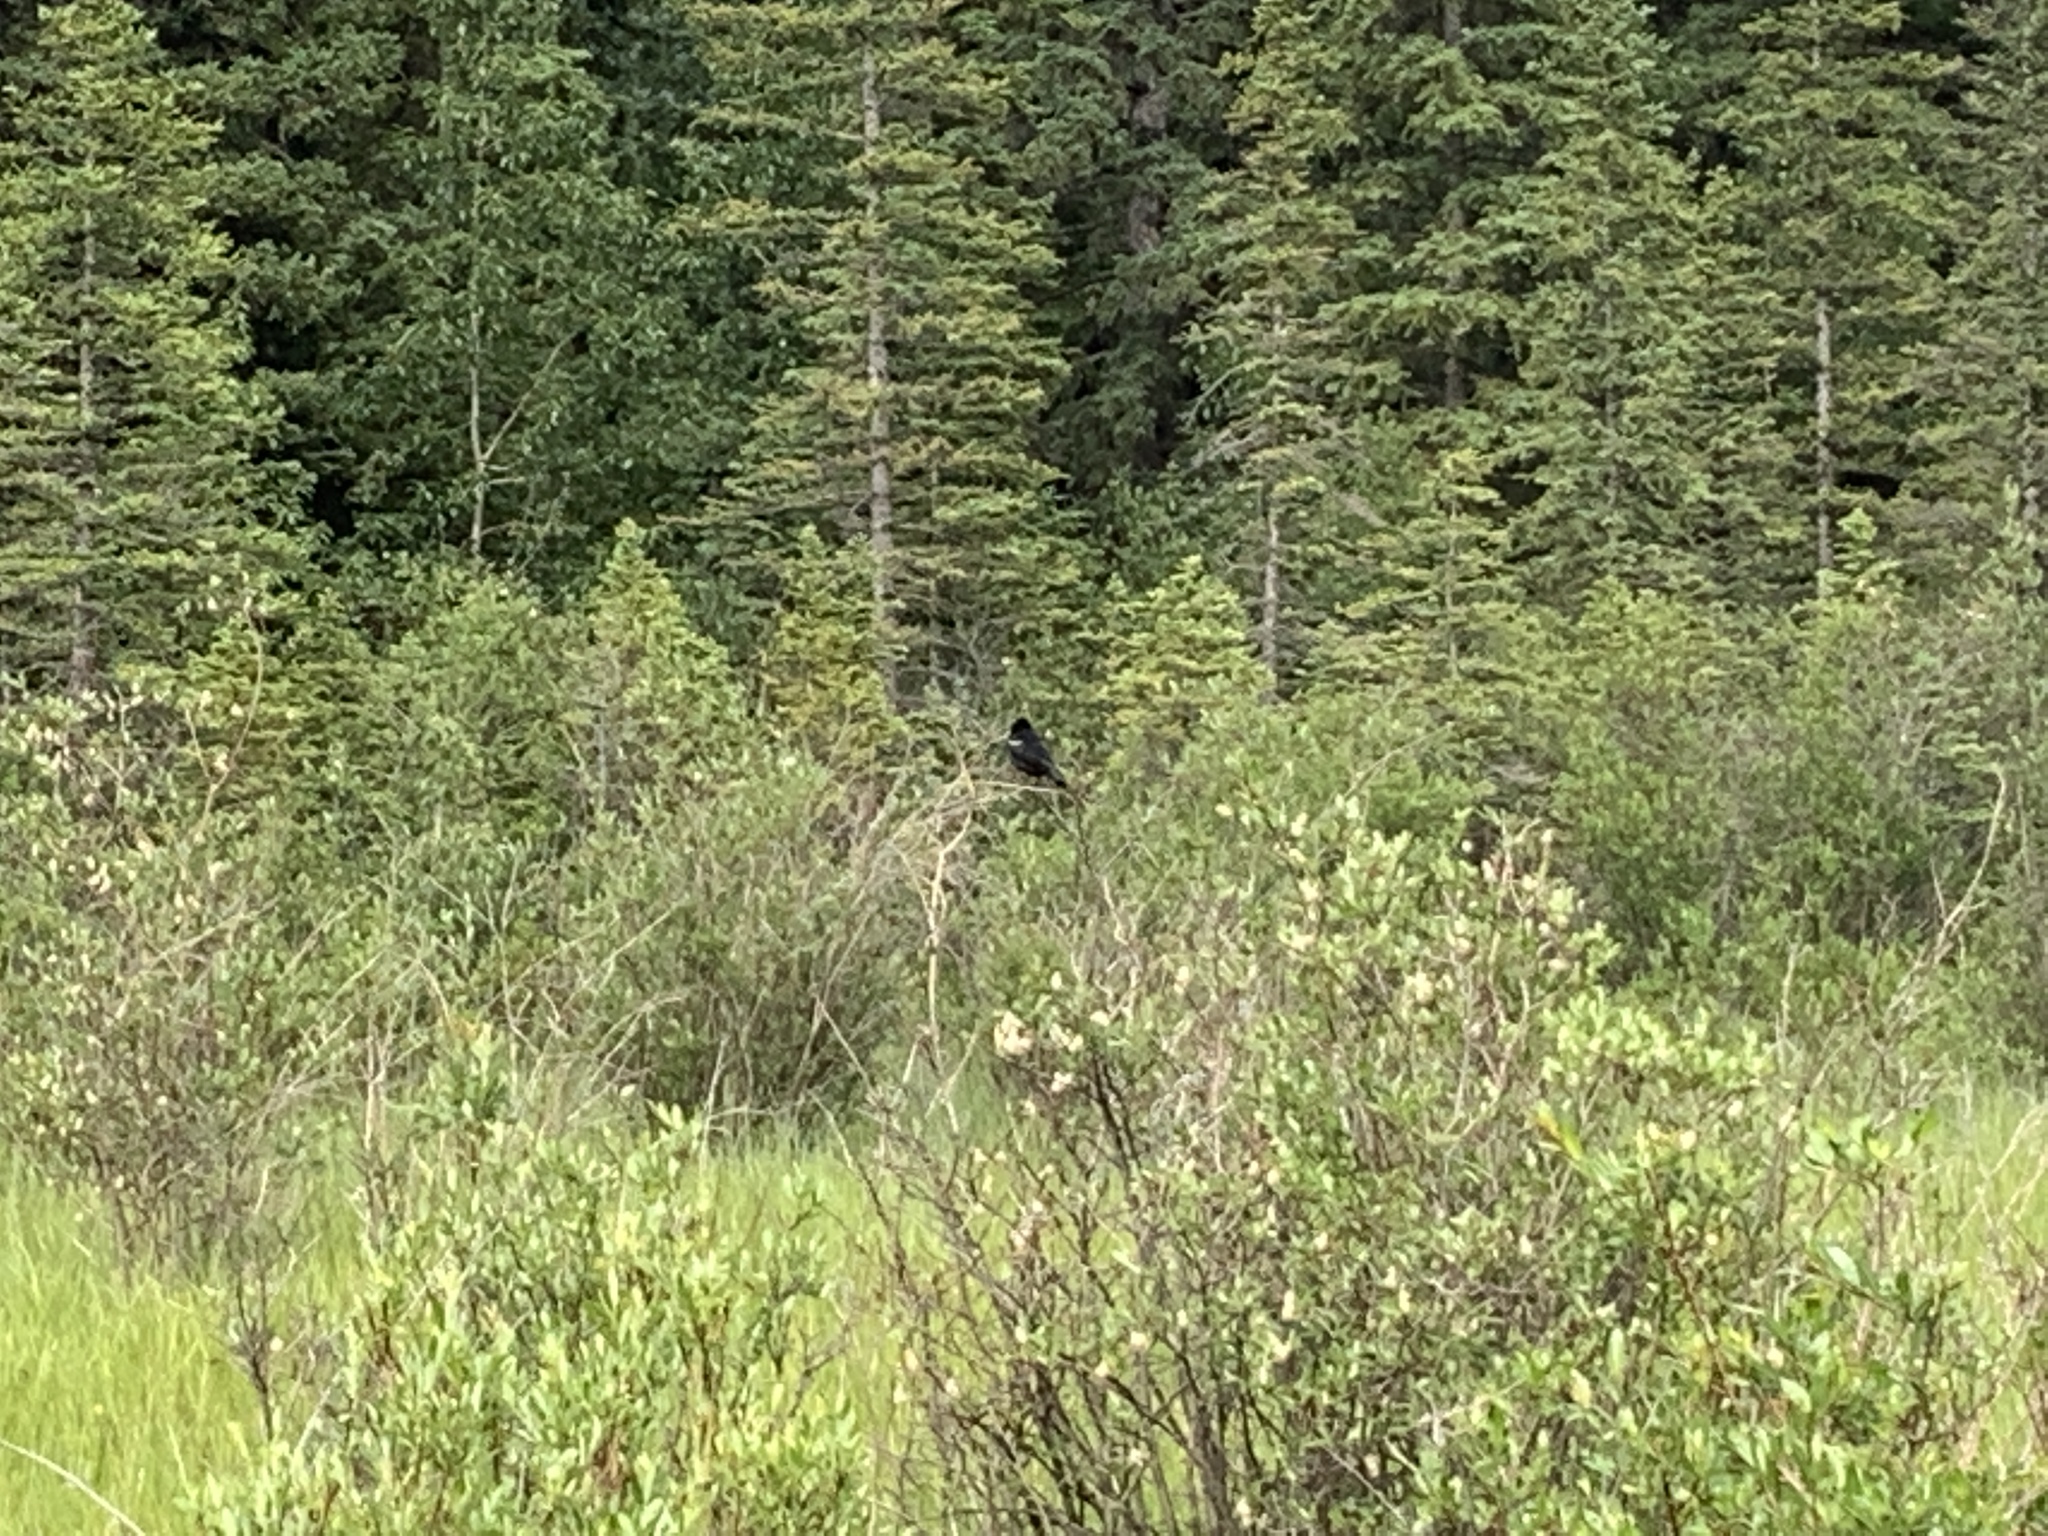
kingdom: Animalia
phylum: Chordata
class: Aves
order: Passeriformes
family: Icteridae
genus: Agelaius
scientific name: Agelaius phoeniceus
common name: Red-winged blackbird
